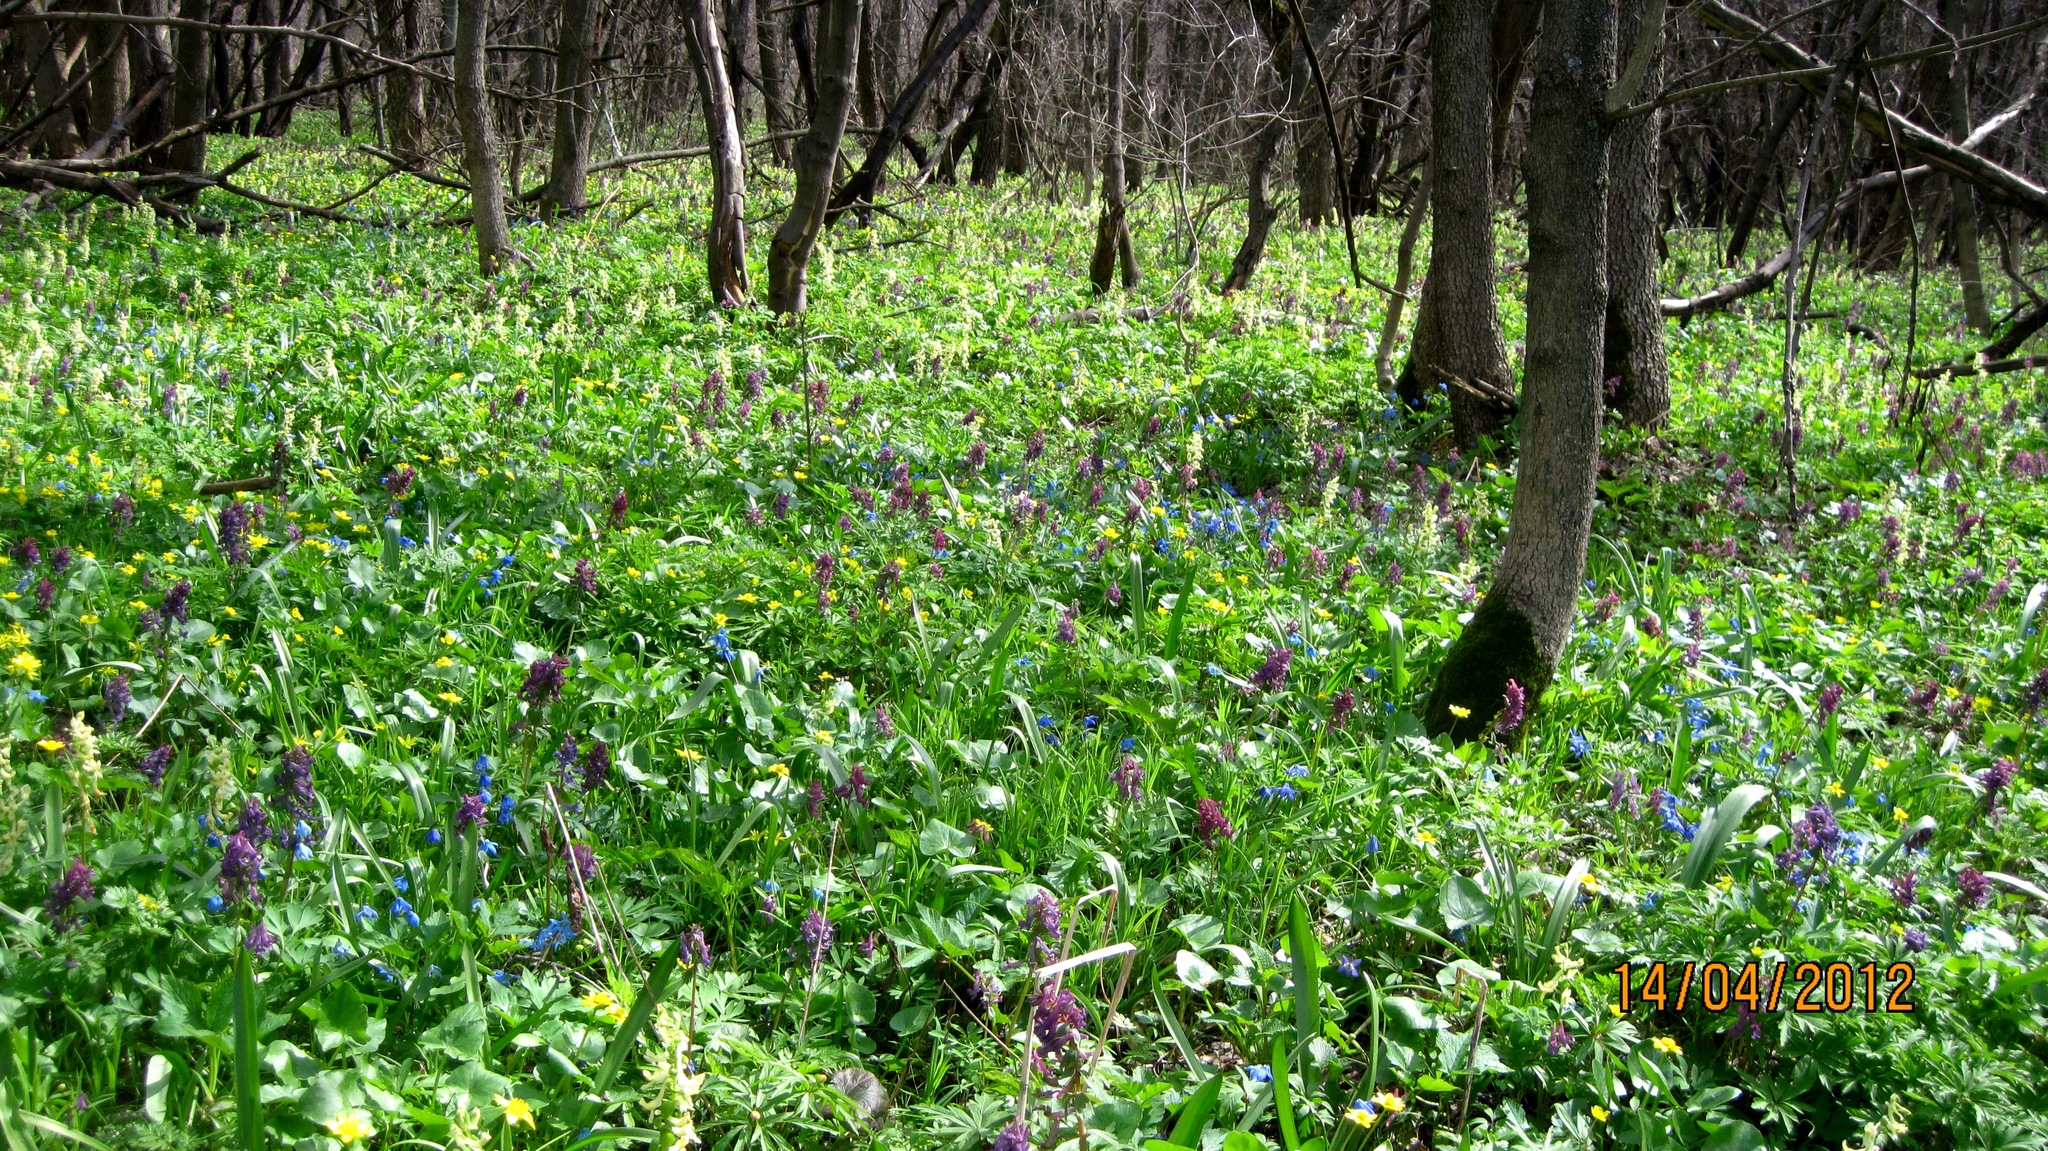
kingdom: Plantae
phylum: Tracheophyta
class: Magnoliopsida
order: Ranunculales
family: Papaveraceae
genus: Corydalis
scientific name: Corydalis cava
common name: Hollowroot
